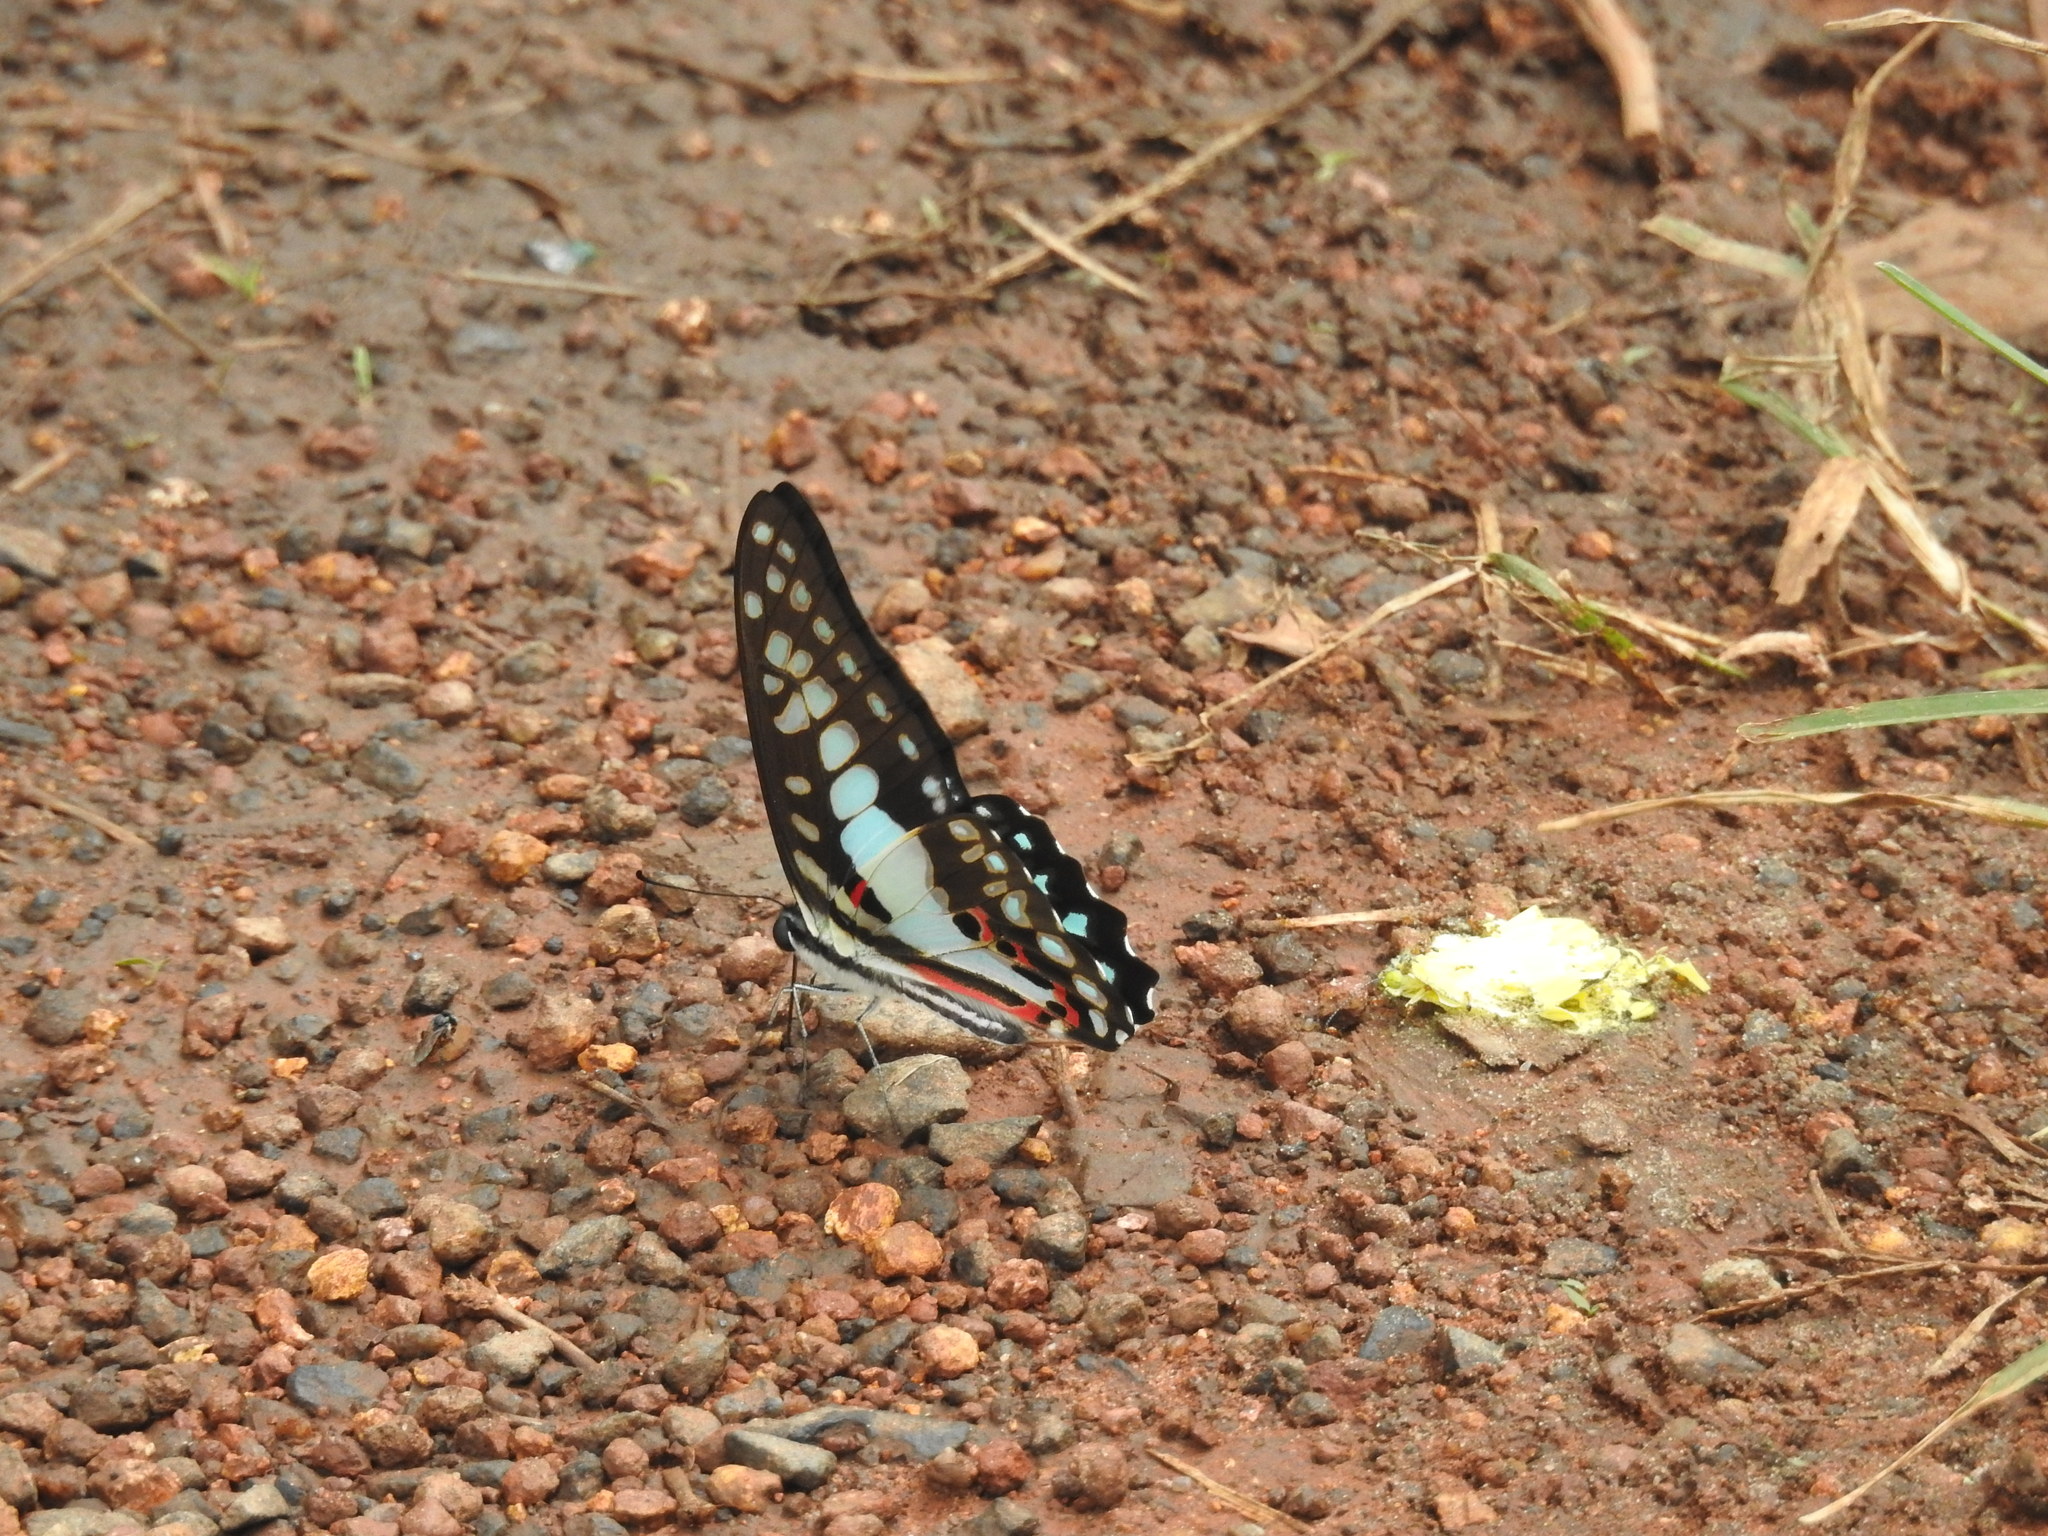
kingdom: Animalia
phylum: Arthropoda
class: Insecta
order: Lepidoptera
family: Papilionidae
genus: Graphium
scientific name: Graphium doson
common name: Common jay
